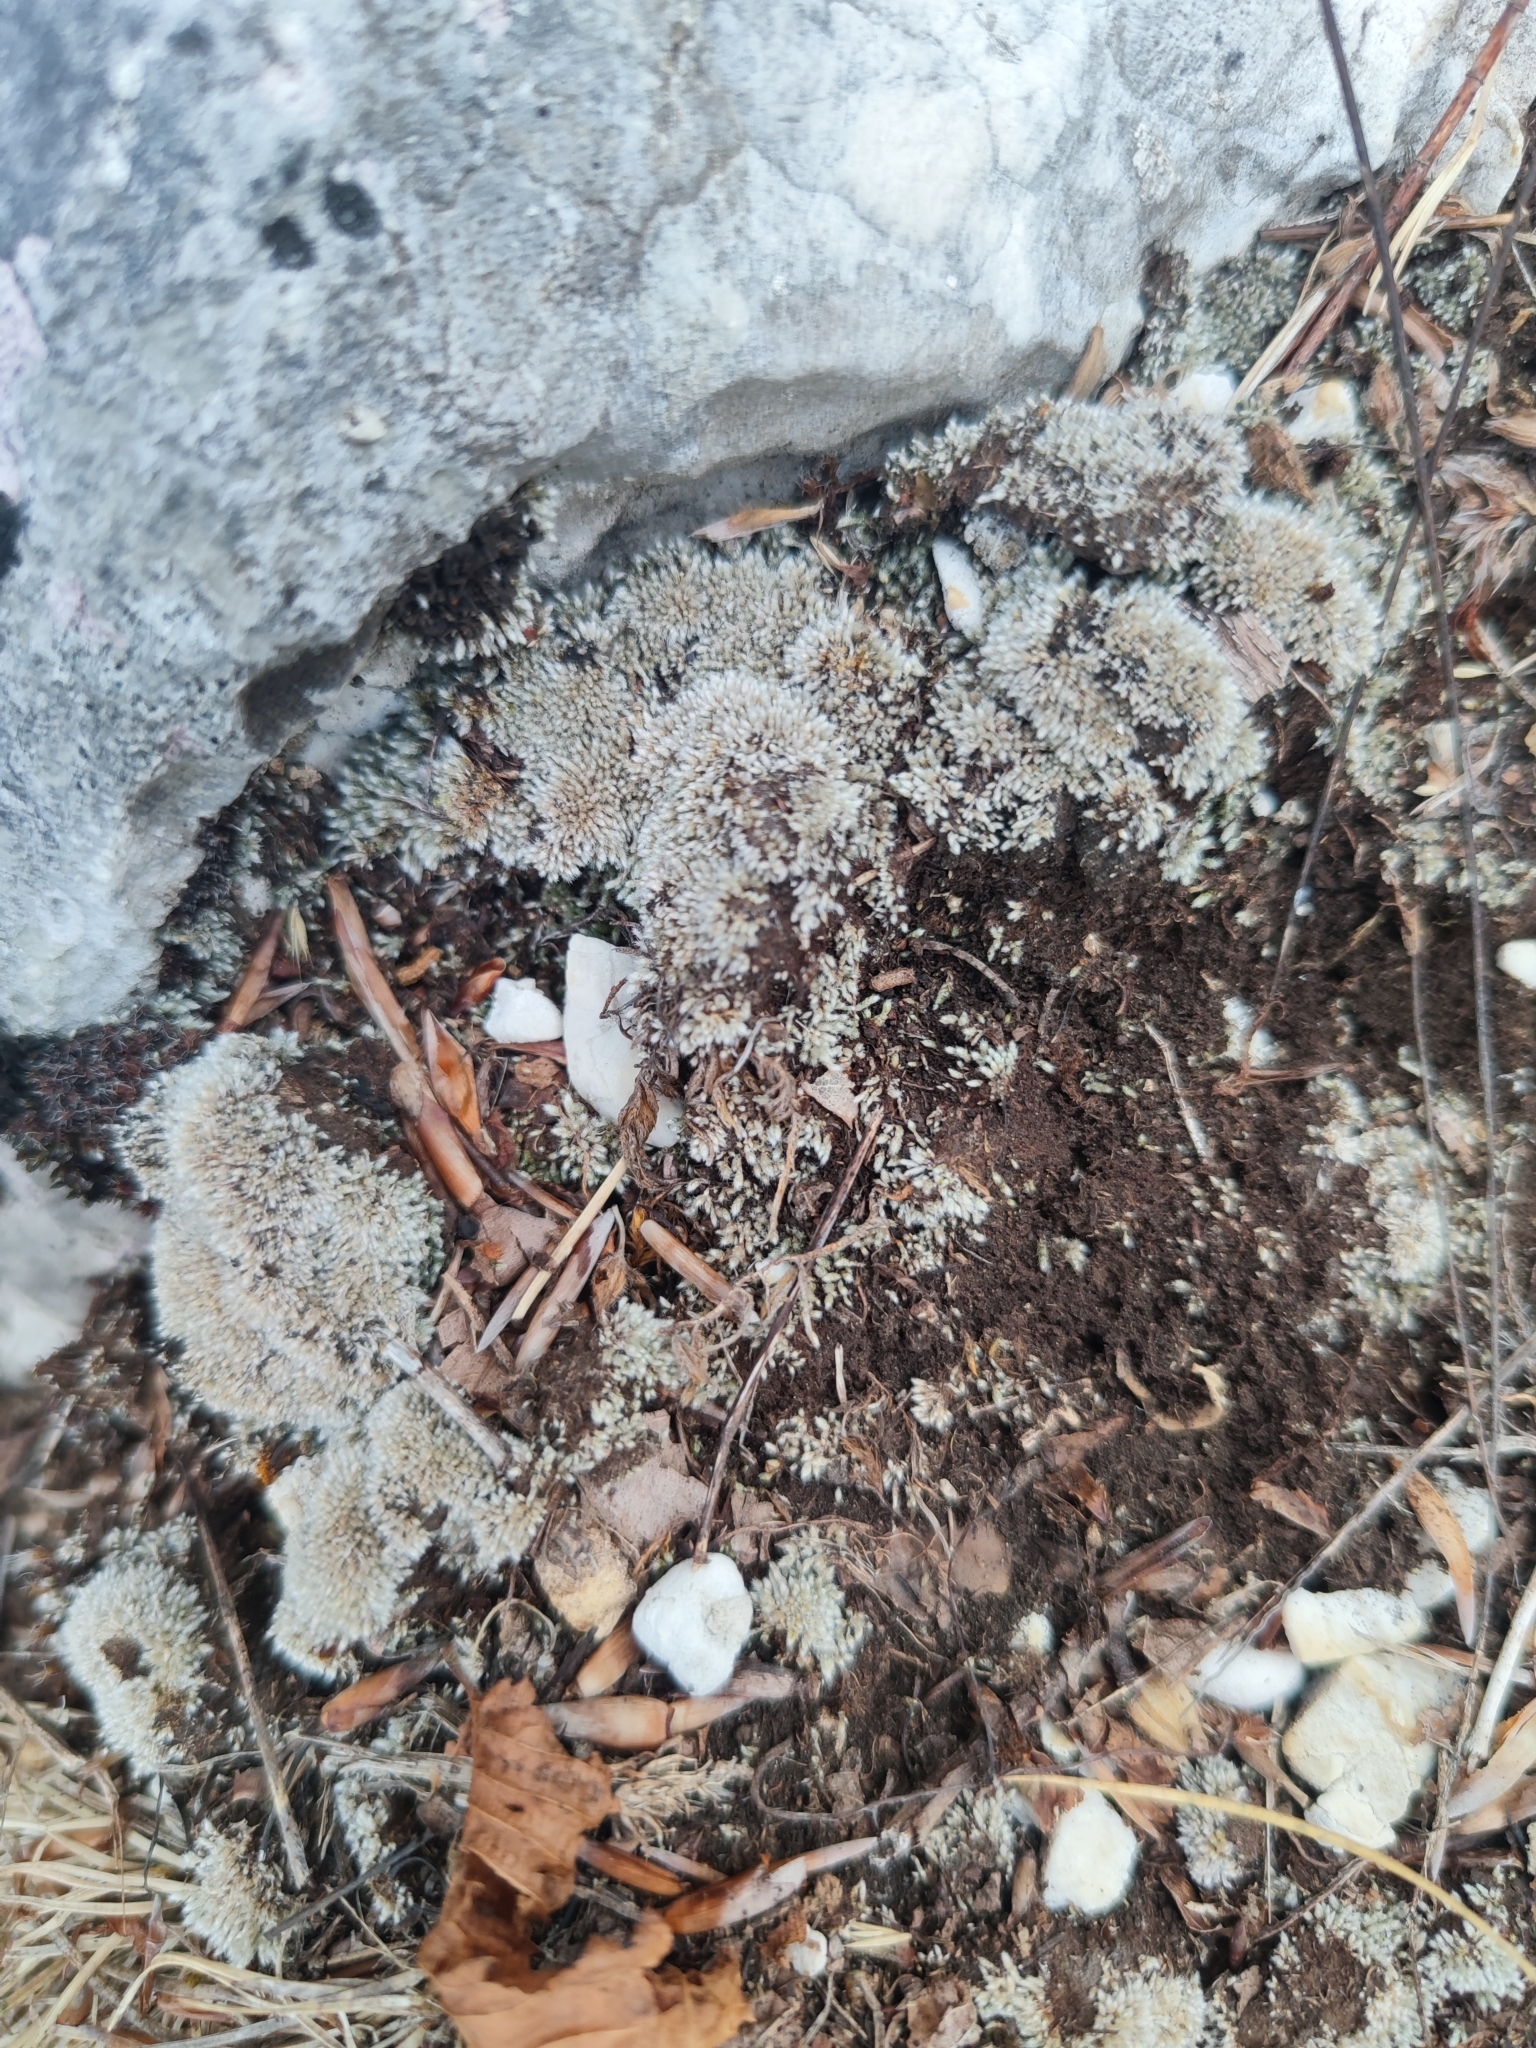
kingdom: Plantae
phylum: Bryophyta
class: Bryopsida
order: Bryales
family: Bryaceae
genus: Bryum
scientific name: Bryum argenteum
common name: Silver-moss
